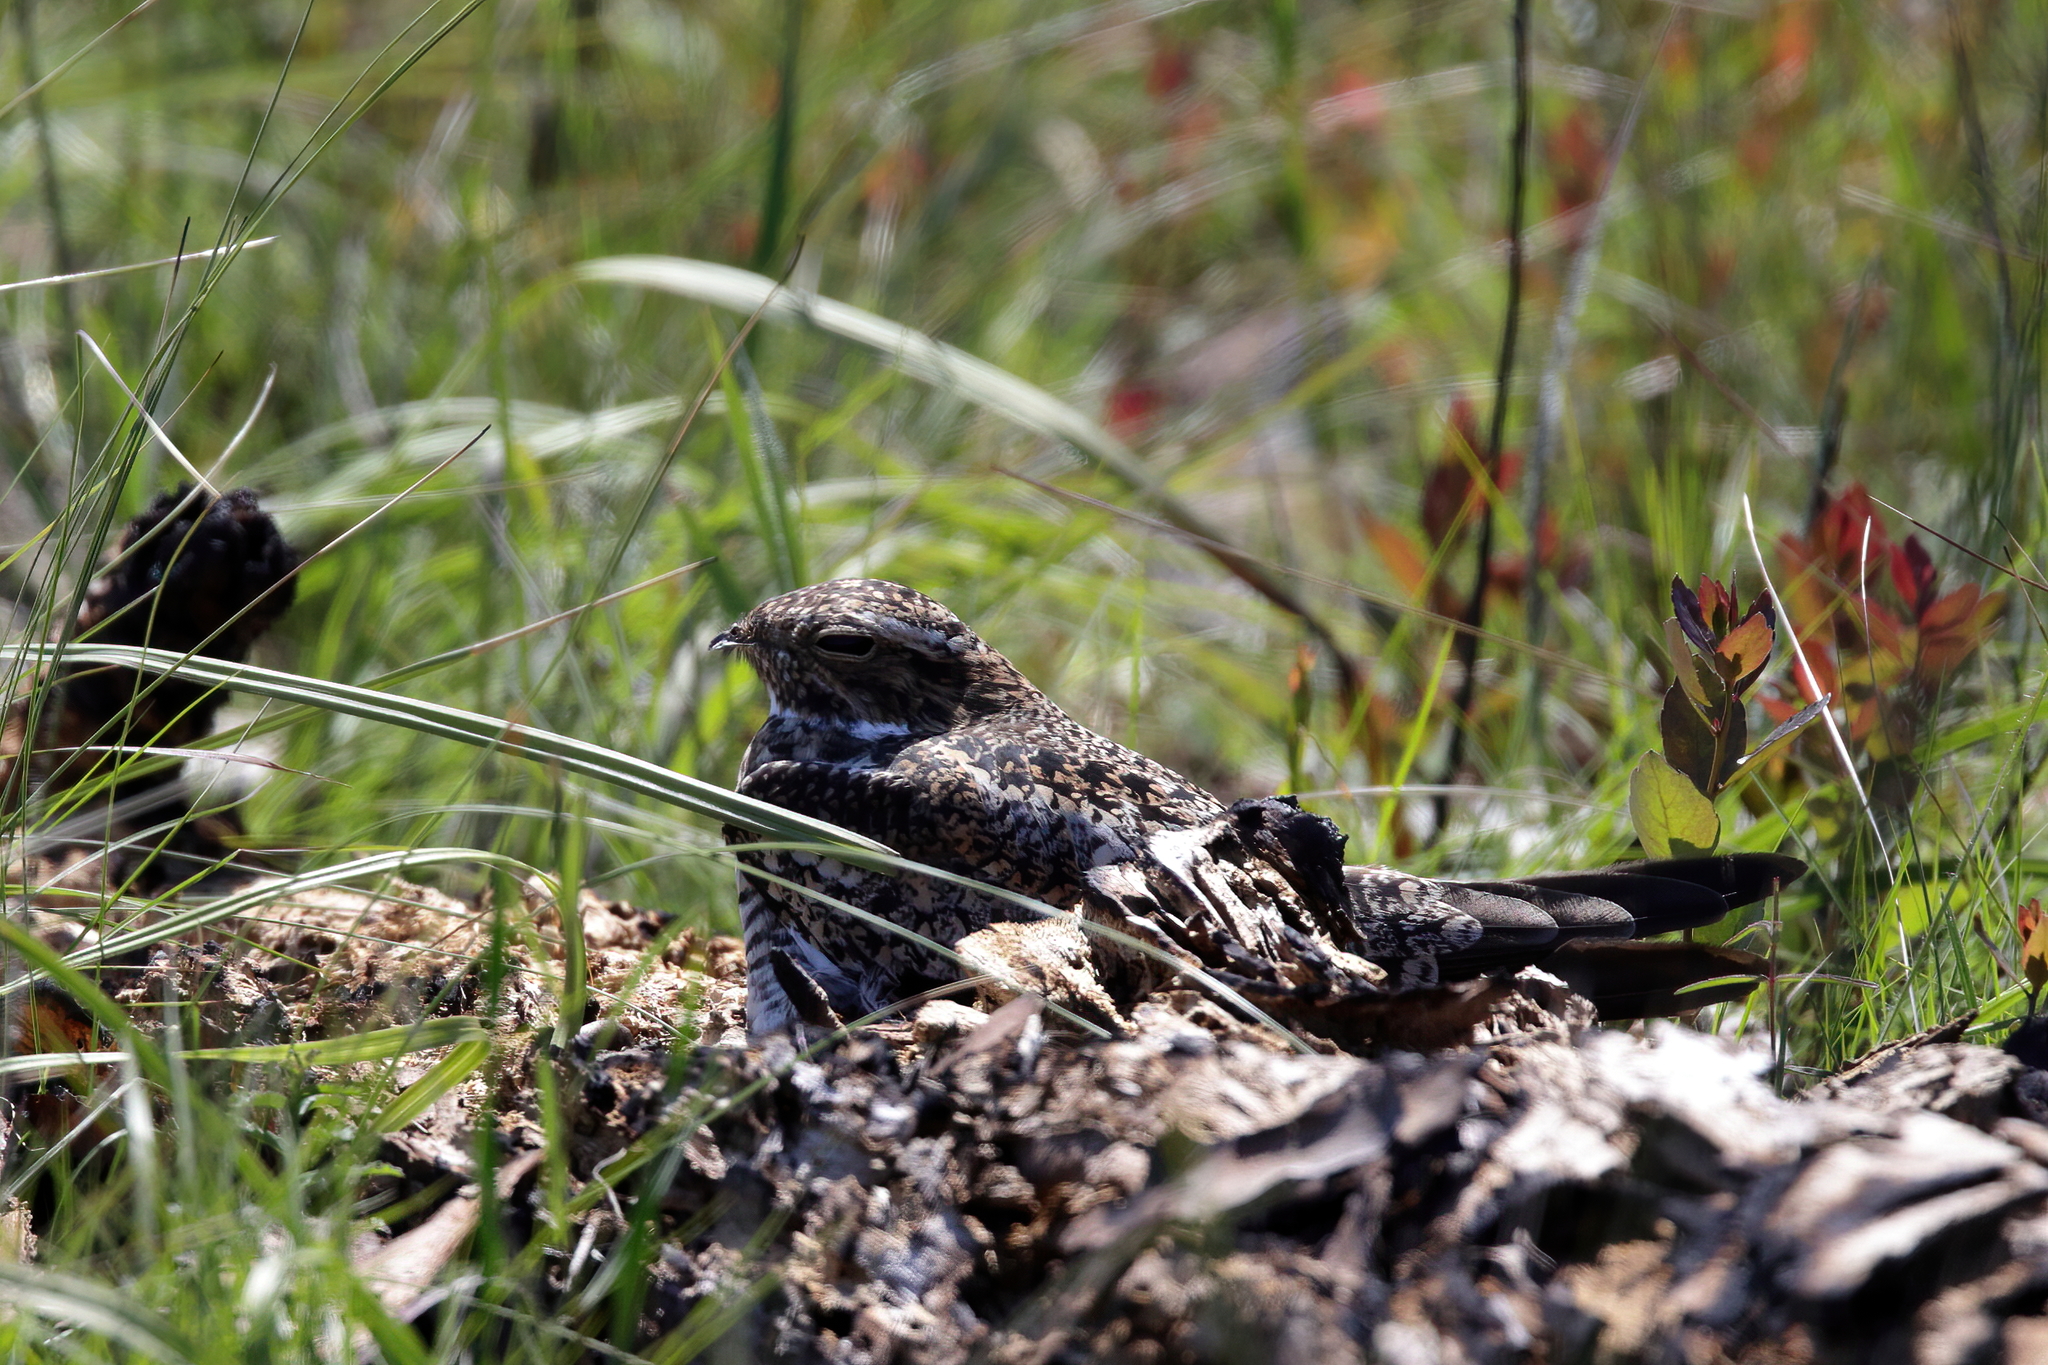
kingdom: Animalia
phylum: Chordata
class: Aves
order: Caprimulgiformes
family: Caprimulgidae
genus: Chordeiles
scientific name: Chordeiles minor
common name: Common nighthawk
